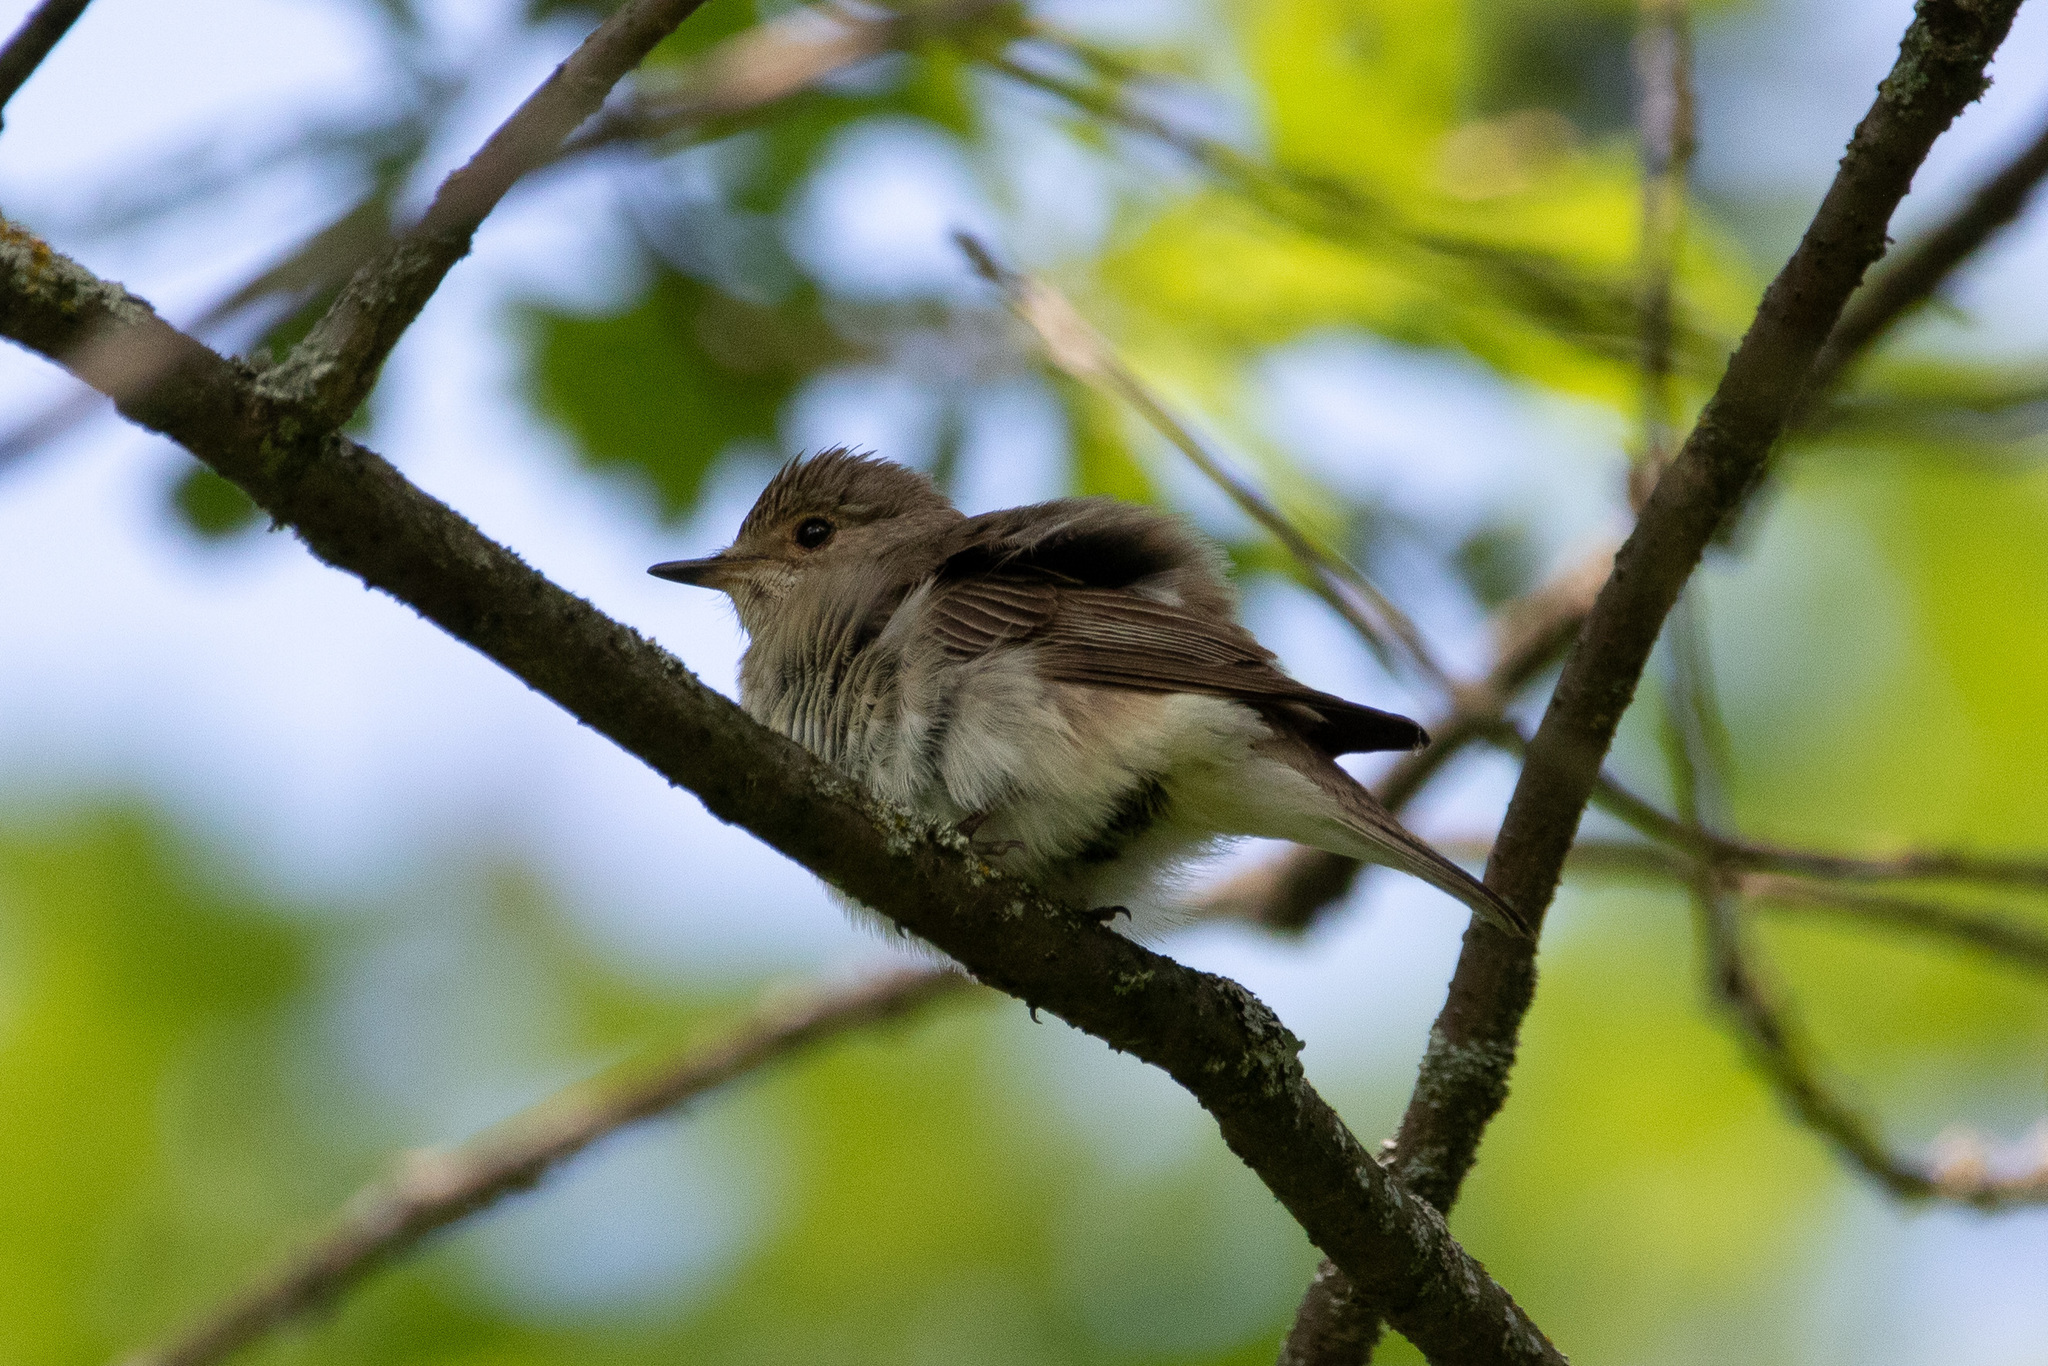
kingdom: Animalia
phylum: Chordata
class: Aves
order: Passeriformes
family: Muscicapidae
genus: Muscicapa
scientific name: Muscicapa striata
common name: Spotted flycatcher
